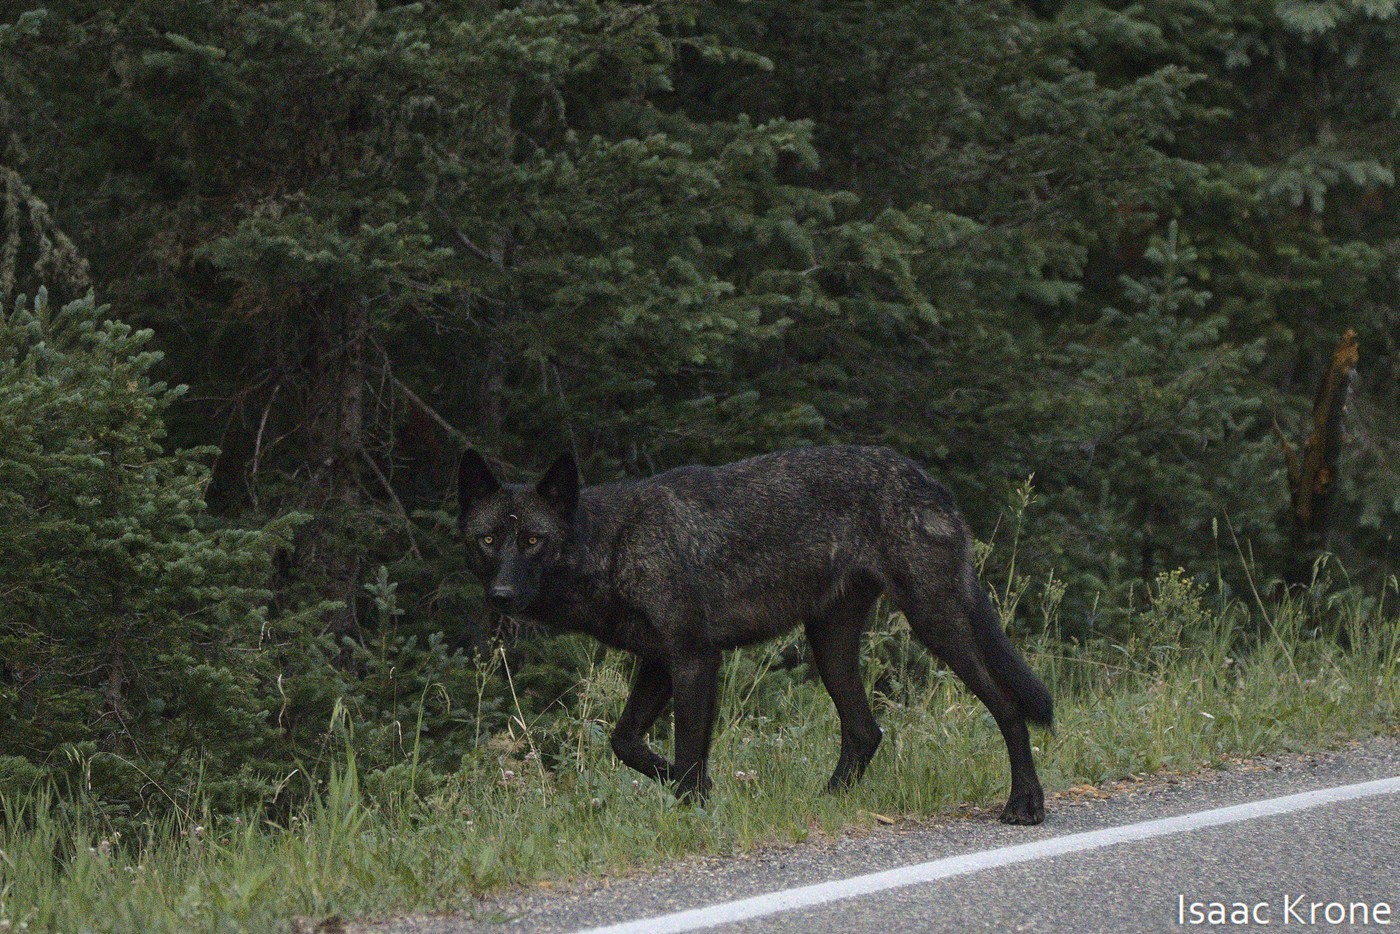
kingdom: Animalia
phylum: Chordata
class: Mammalia
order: Carnivora
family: Canidae
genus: Canis
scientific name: Canis lupus
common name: Gray wolf
